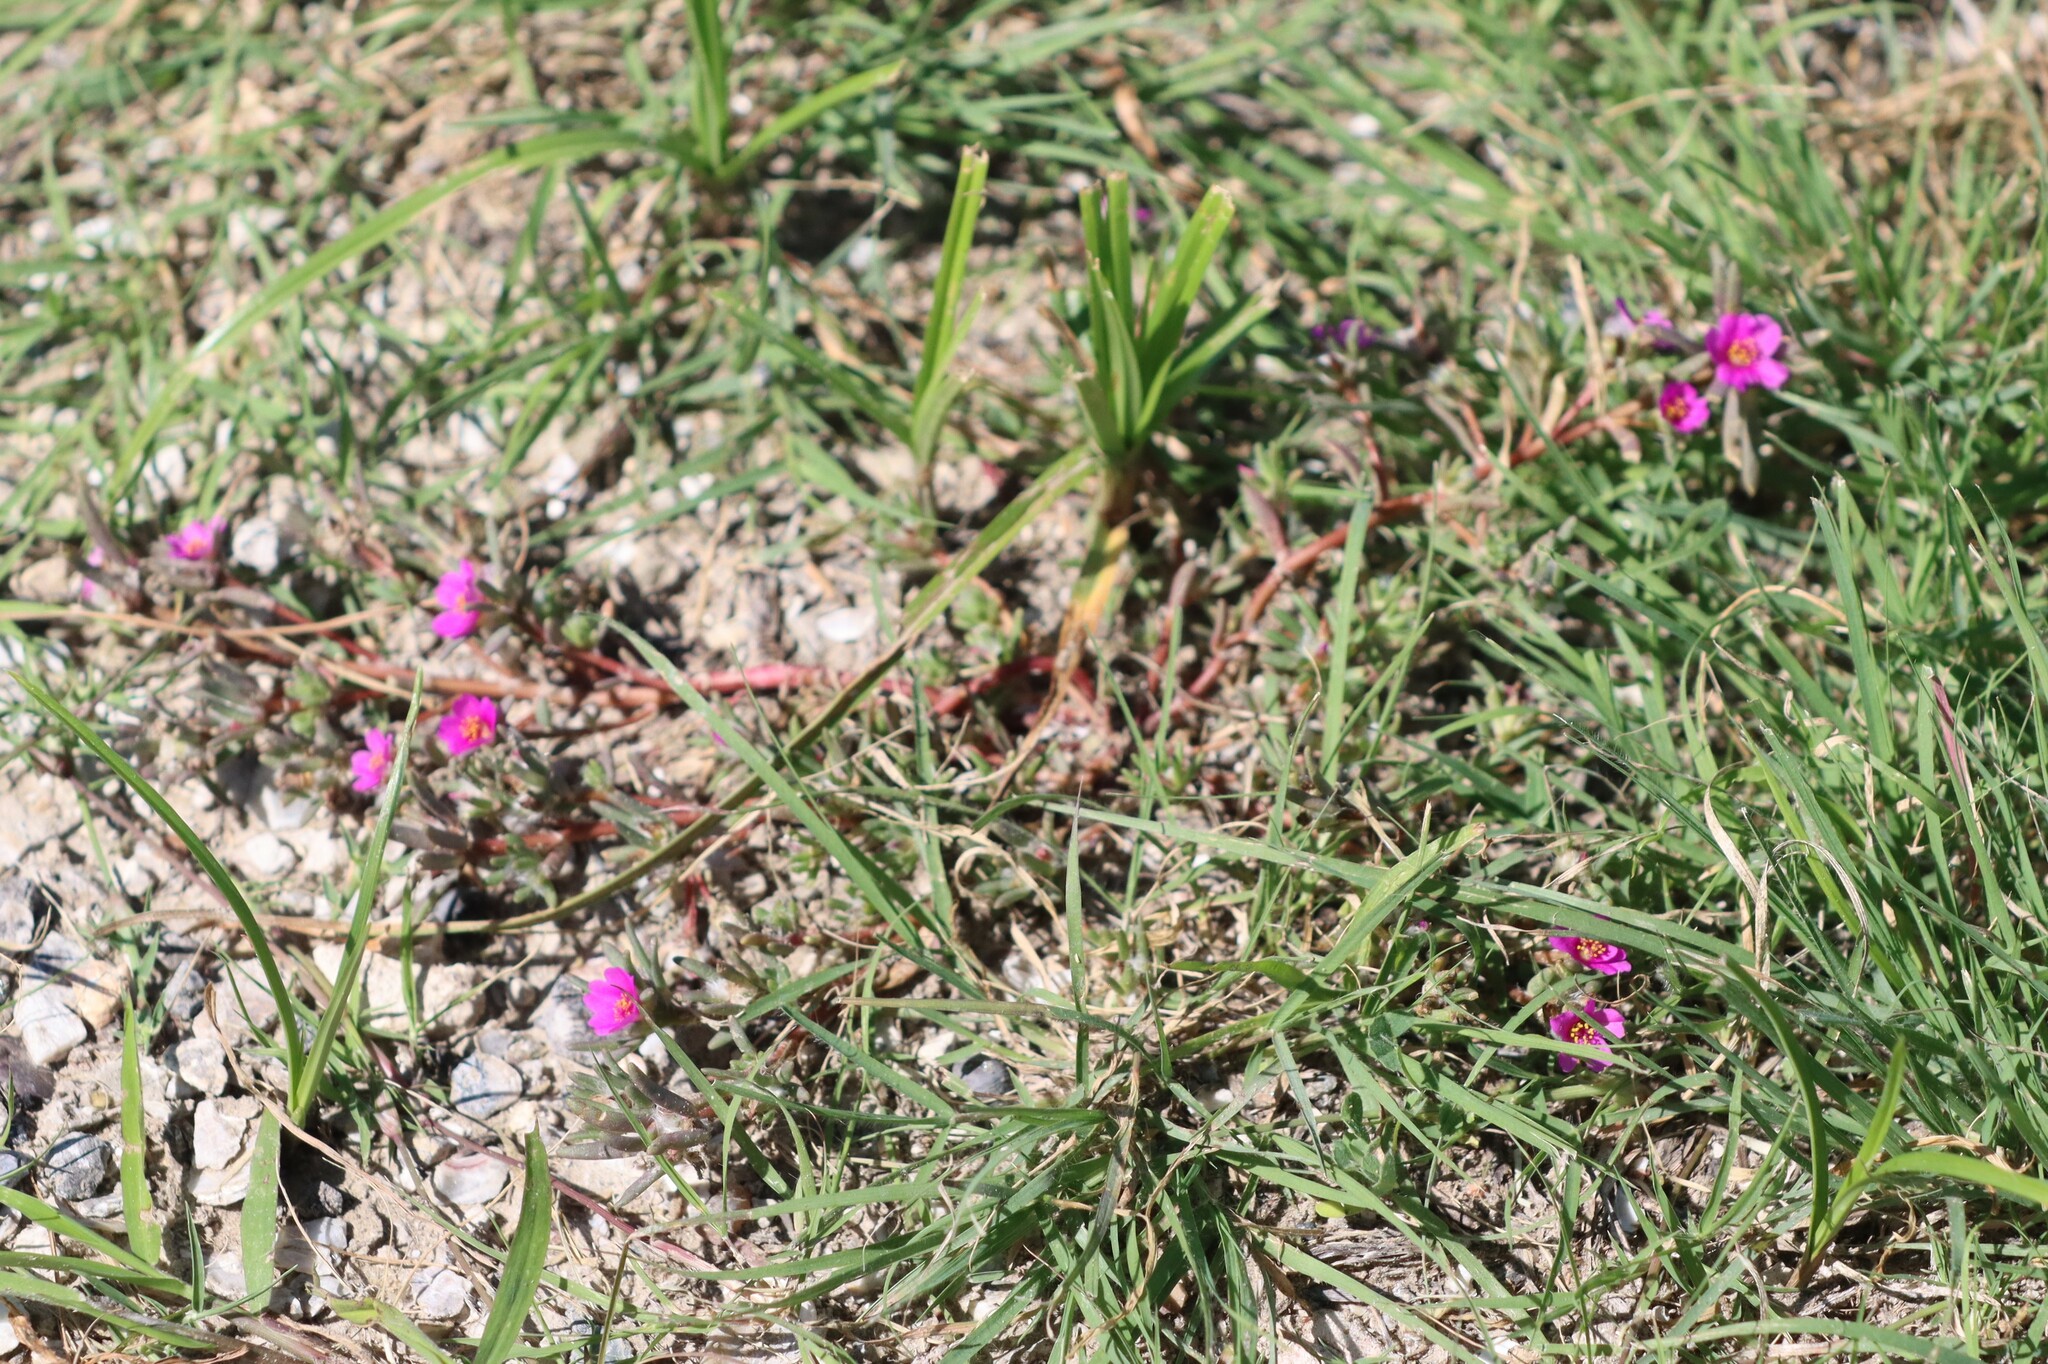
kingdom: Plantae
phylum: Tracheophyta
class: Magnoliopsida
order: Caryophyllales
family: Portulacaceae
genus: Portulaca
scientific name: Portulaca pilosa
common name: Kiss me quick
